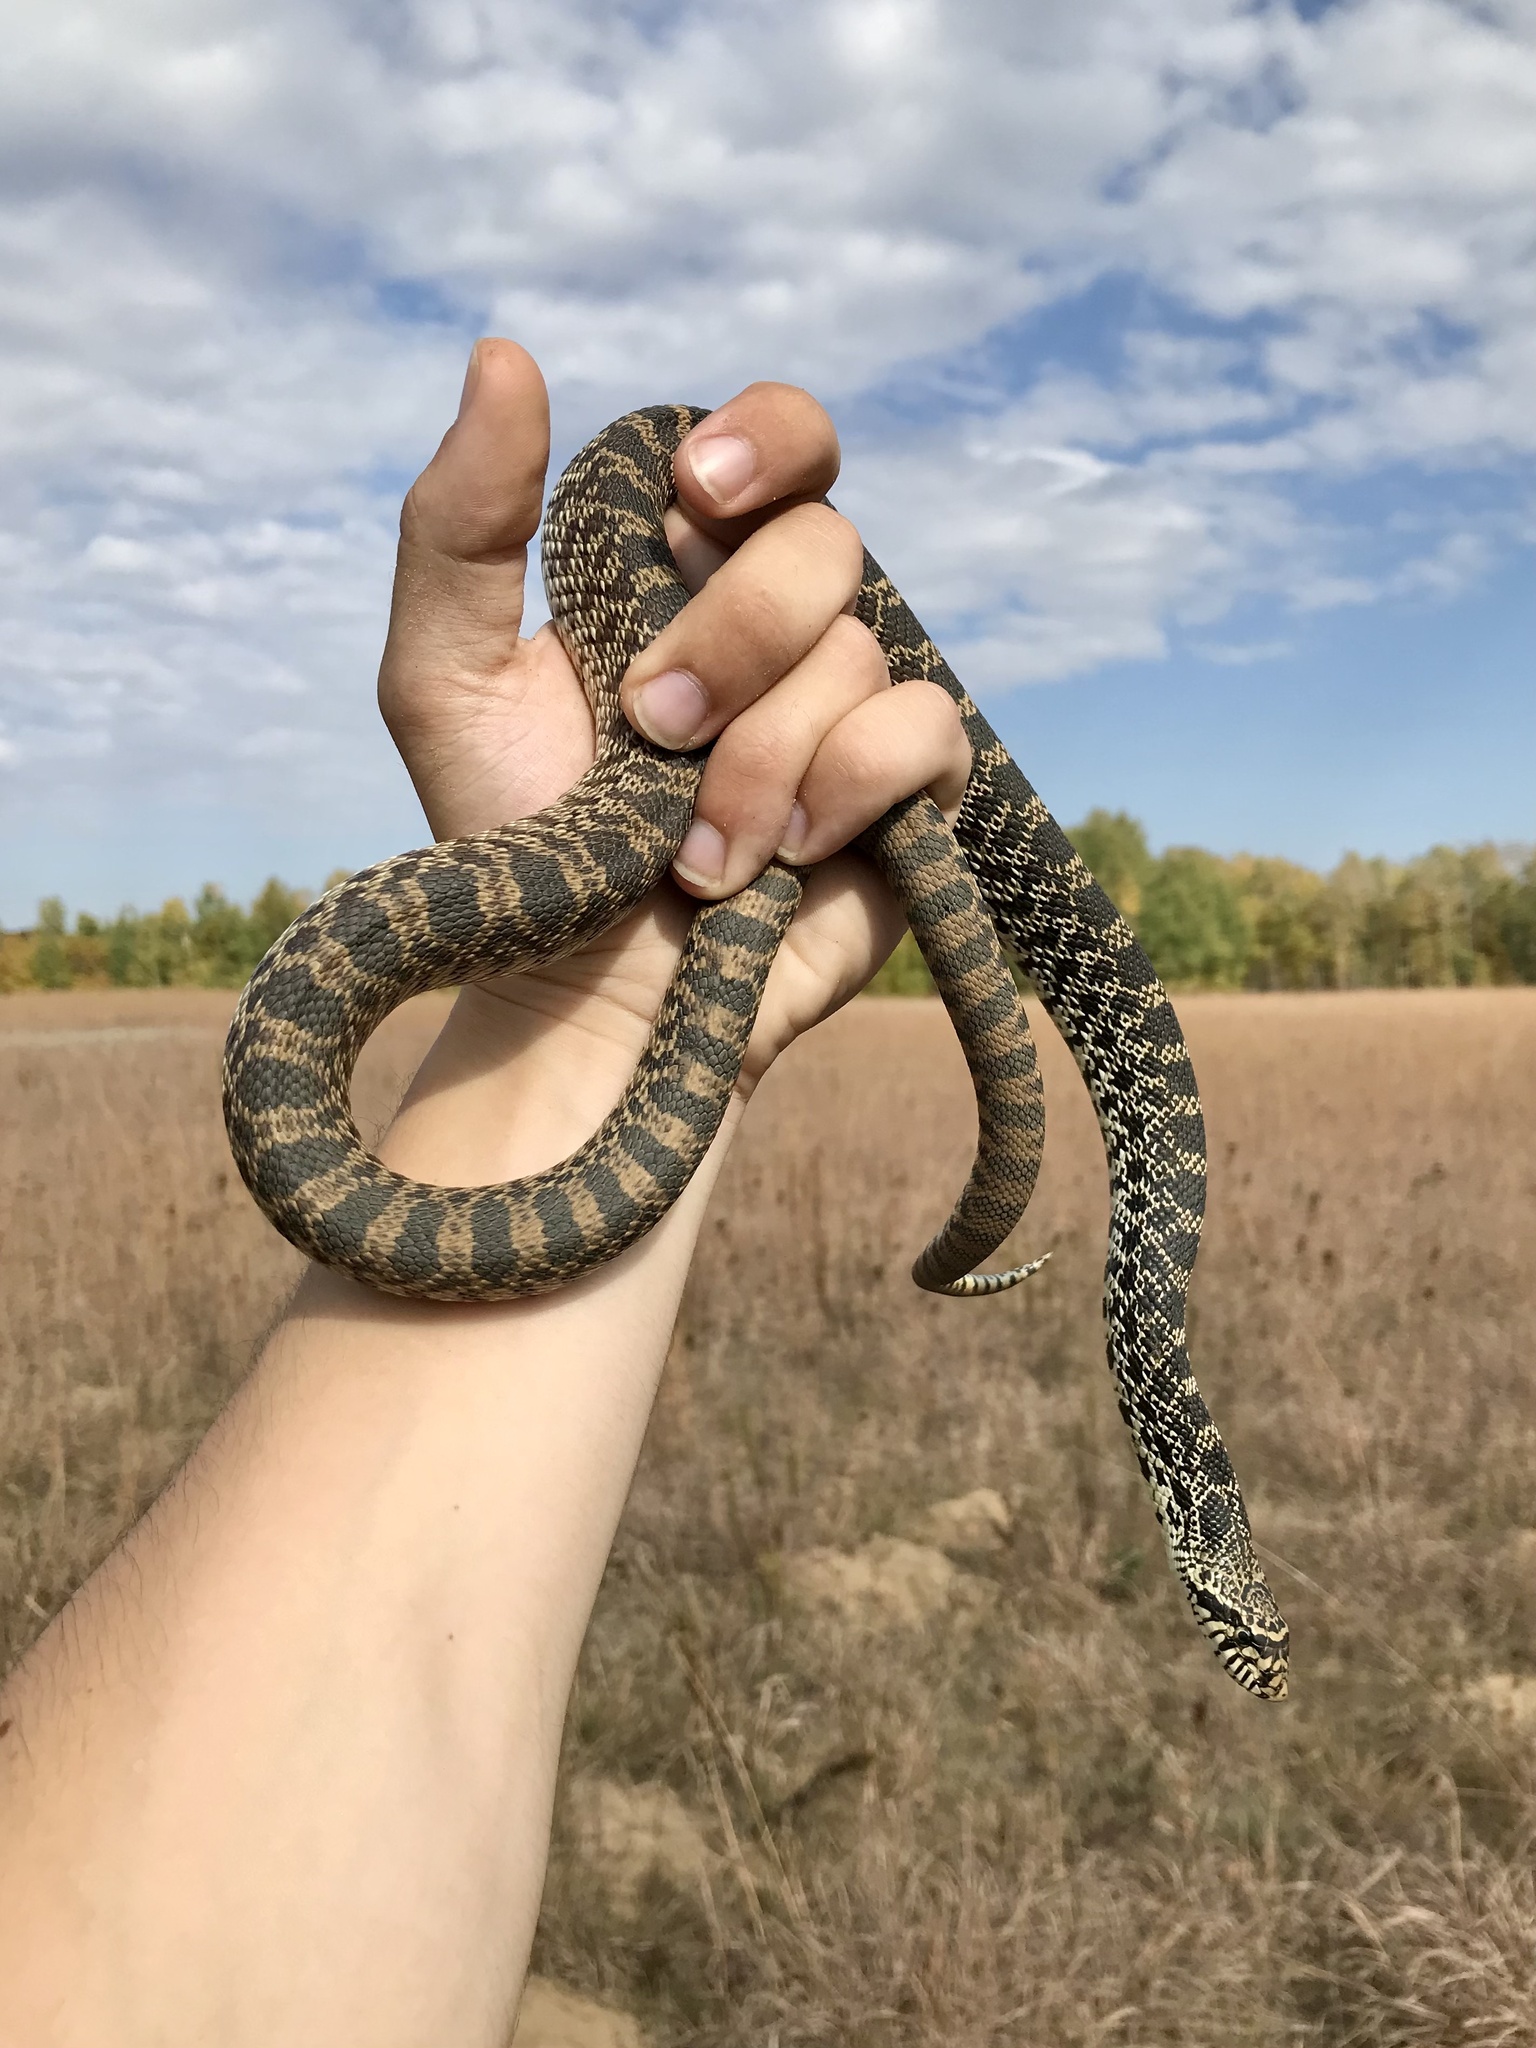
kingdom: Animalia
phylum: Chordata
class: Squamata
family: Colubridae
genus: Pituophis
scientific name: Pituophis catenifer
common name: Gopher snake
